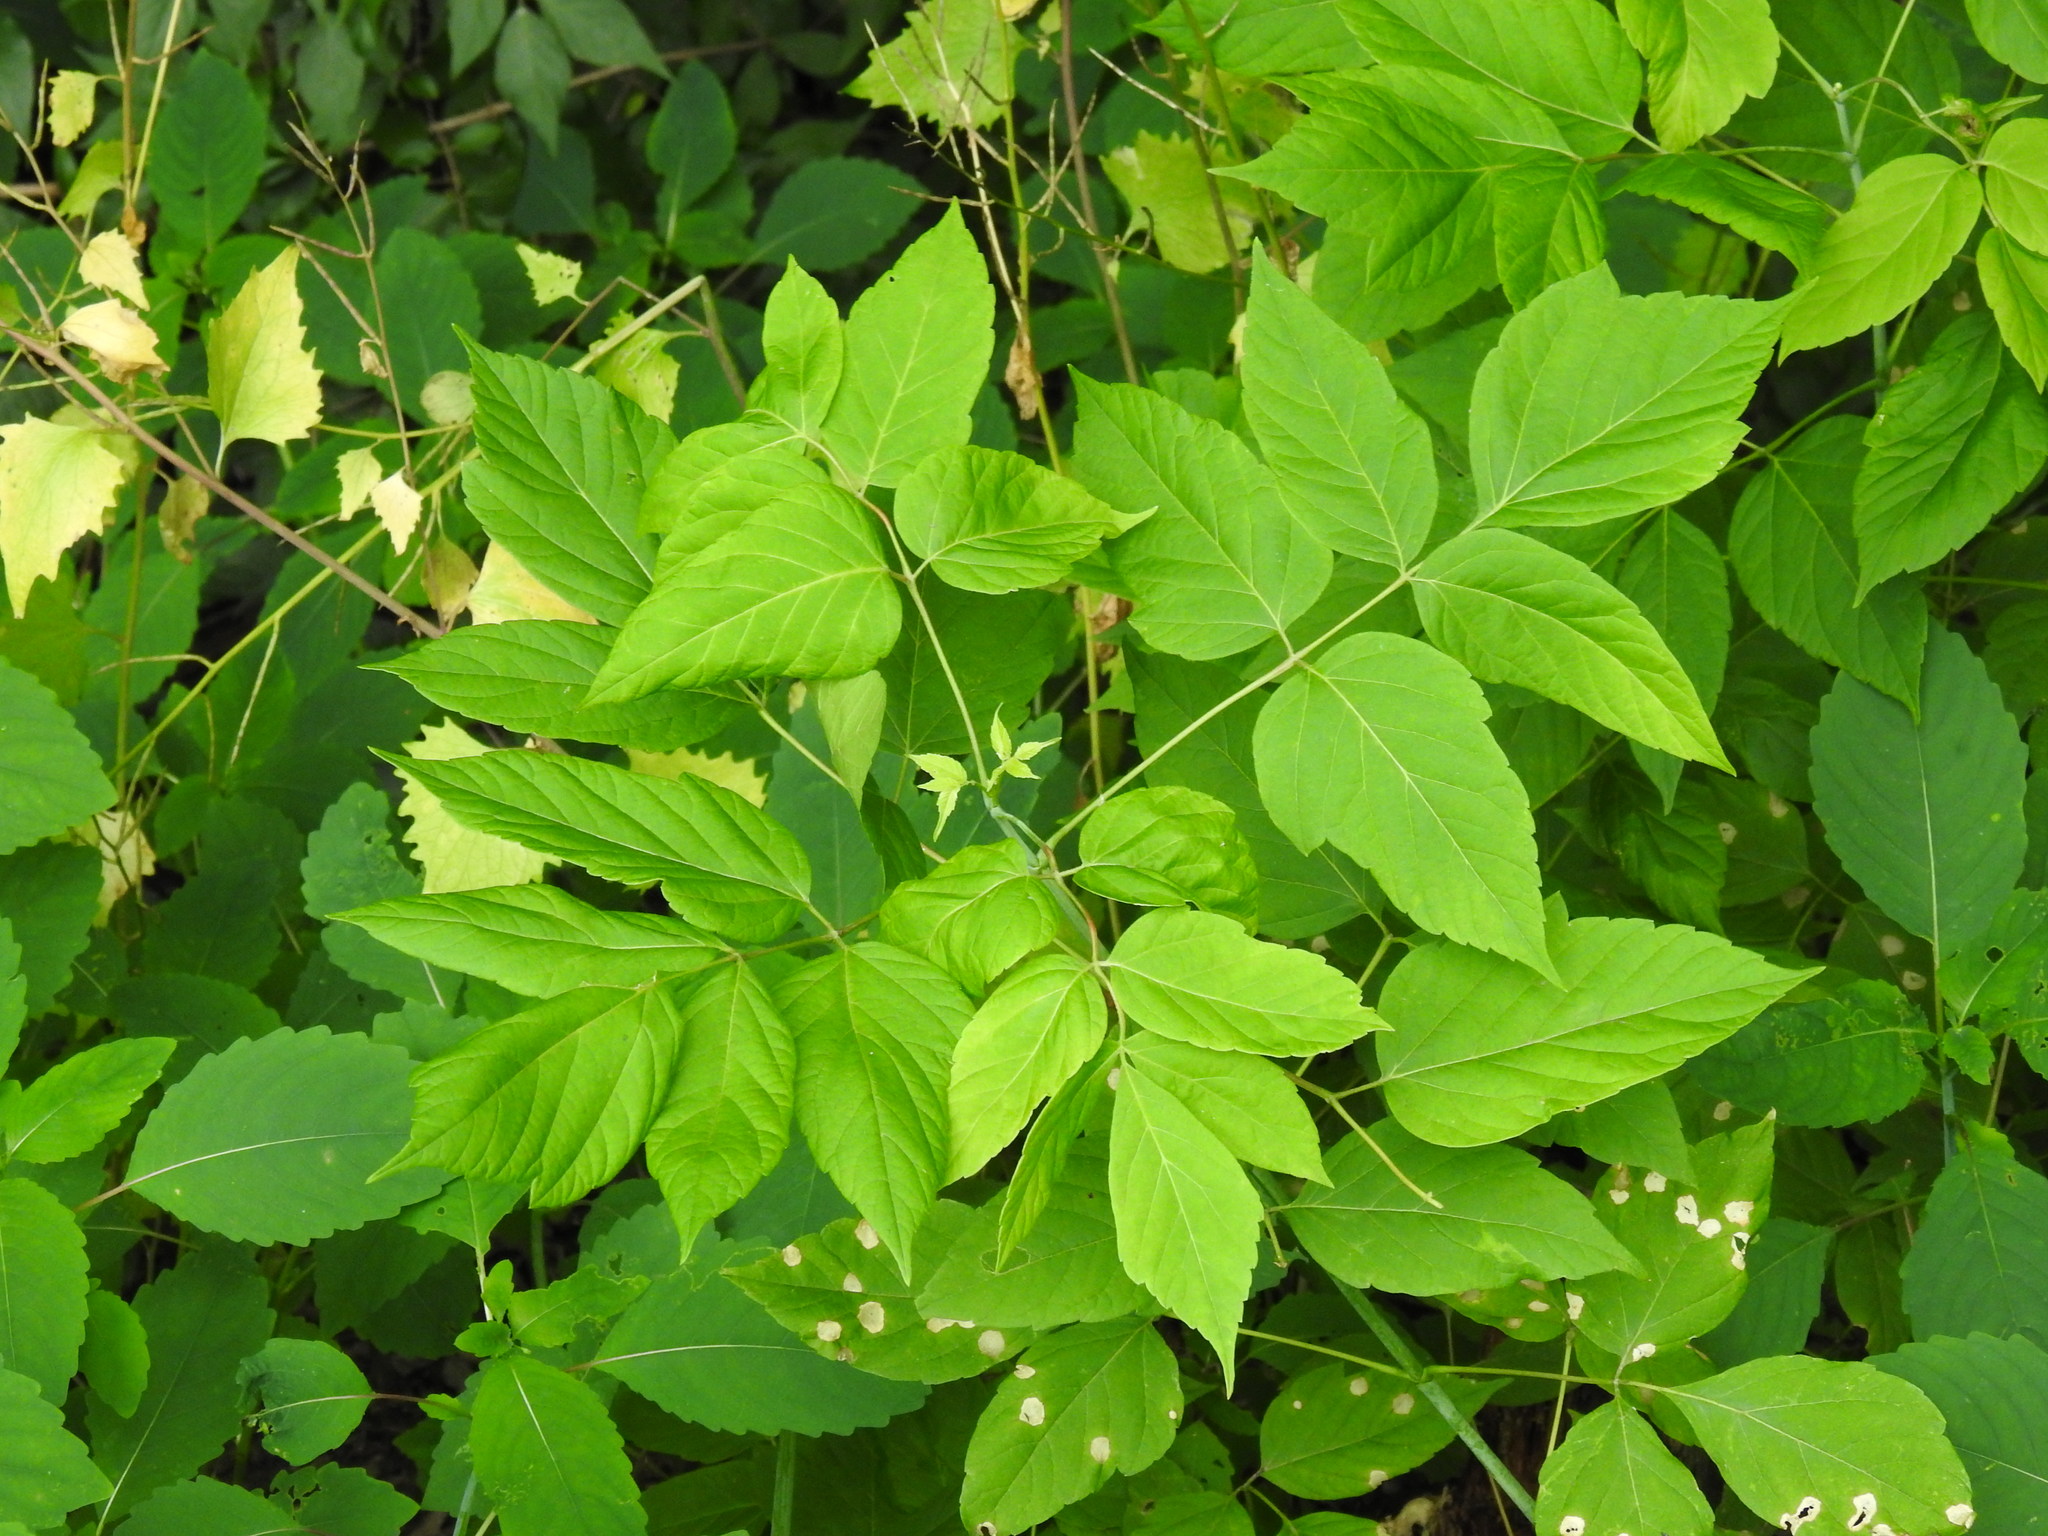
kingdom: Plantae
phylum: Tracheophyta
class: Magnoliopsida
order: Sapindales
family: Sapindaceae
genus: Acer
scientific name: Acer negundo
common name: Ashleaf maple
